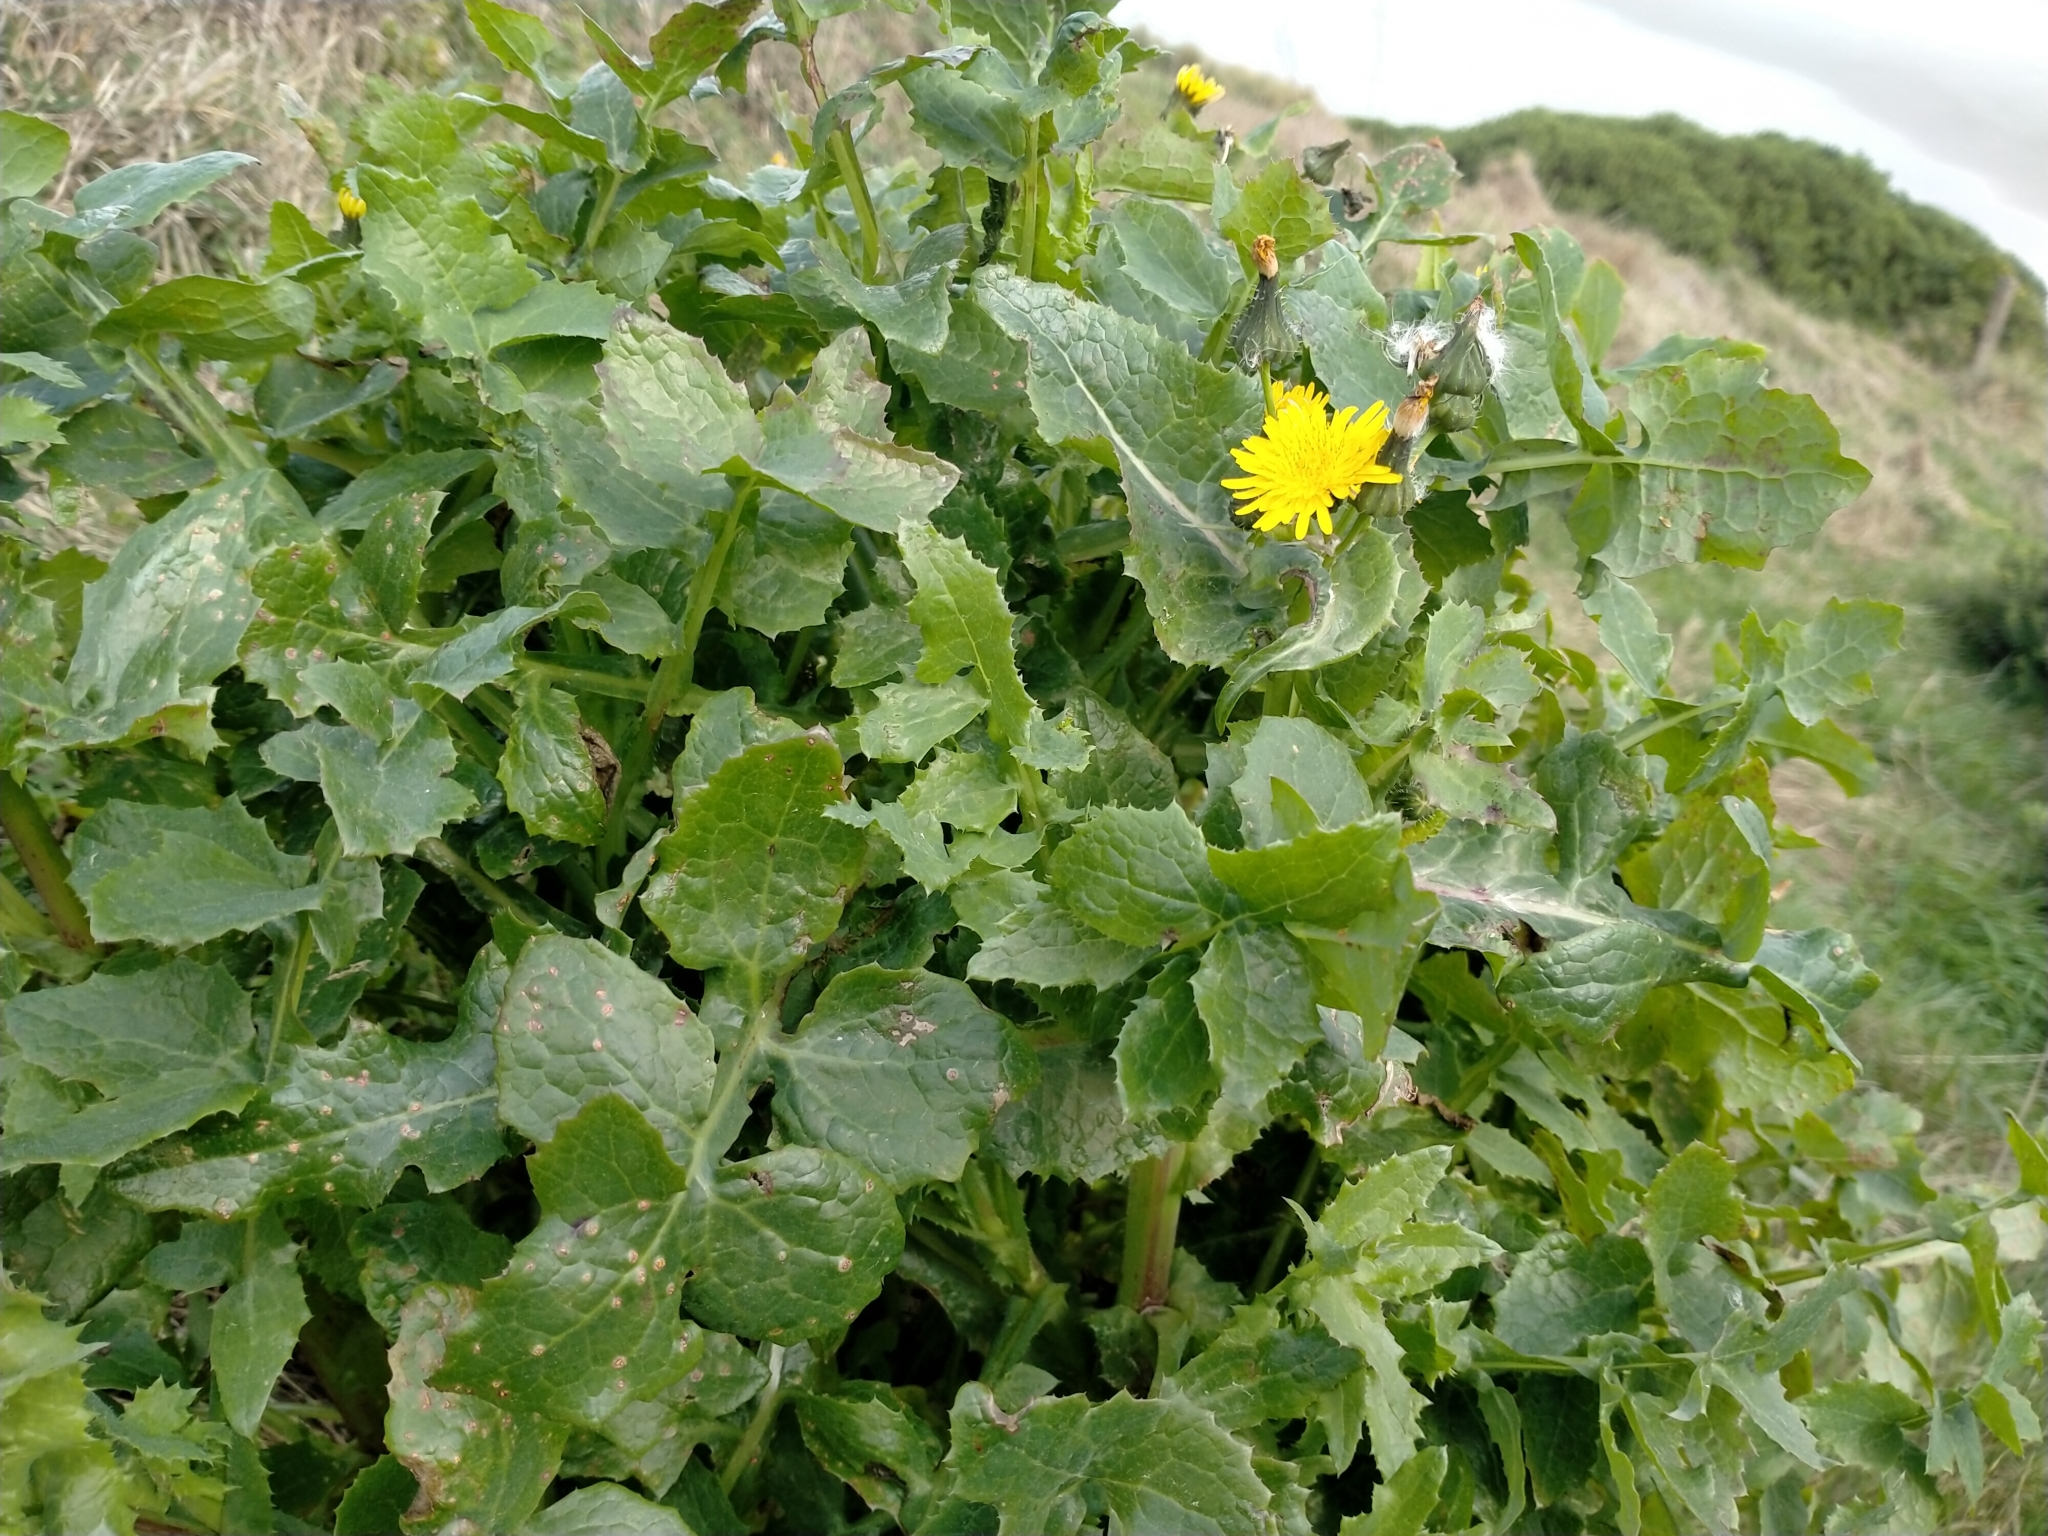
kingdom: Plantae
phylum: Tracheophyta
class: Magnoliopsida
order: Asterales
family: Asteraceae
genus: Sonchus
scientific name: Sonchus oleraceus
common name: Common sowthistle
